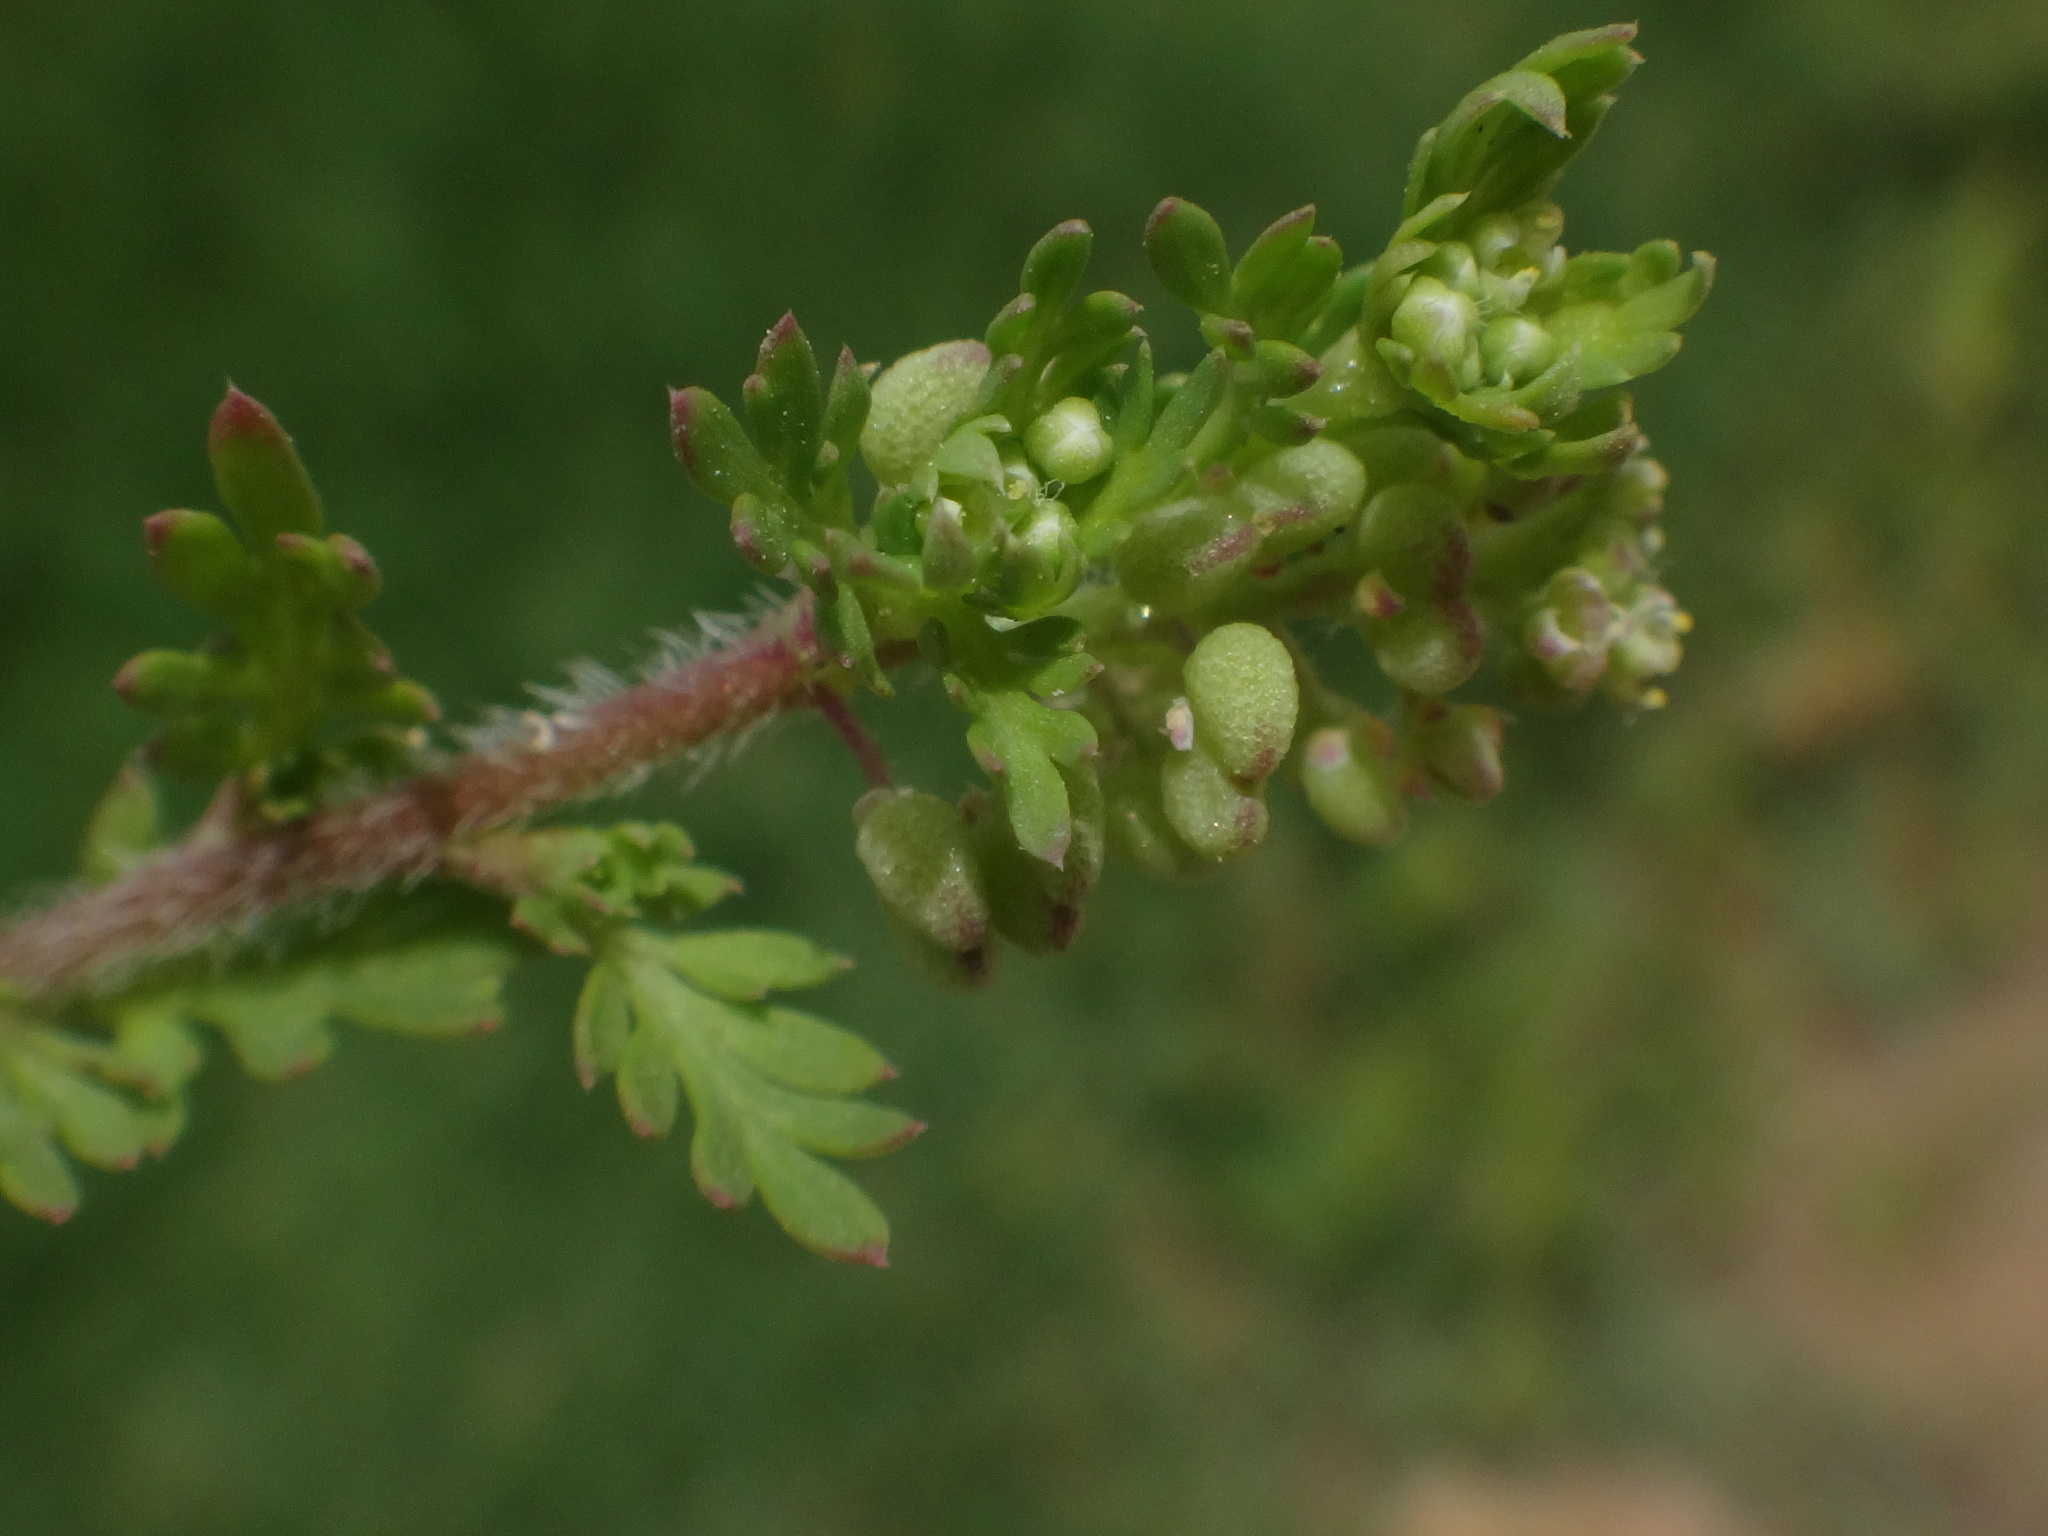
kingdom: Plantae
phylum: Tracheophyta
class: Magnoliopsida
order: Brassicales
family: Brassicaceae
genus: Lepidium
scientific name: Lepidium didymum
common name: Lesser swinecress
